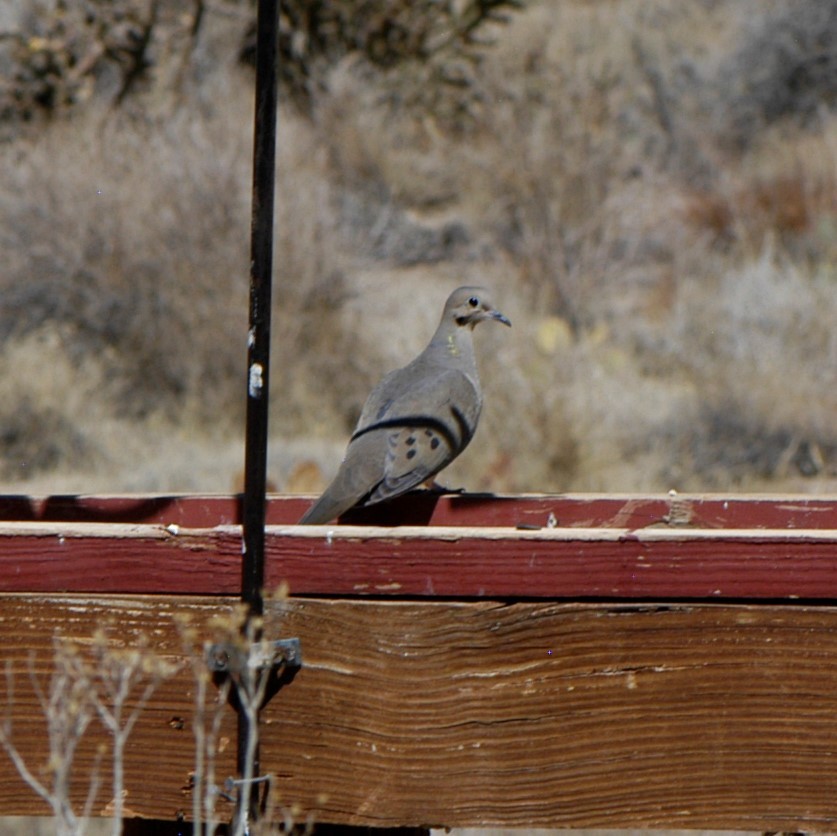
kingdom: Animalia
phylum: Chordata
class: Aves
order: Columbiformes
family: Columbidae
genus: Zenaida
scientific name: Zenaida macroura
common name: Mourning dove
